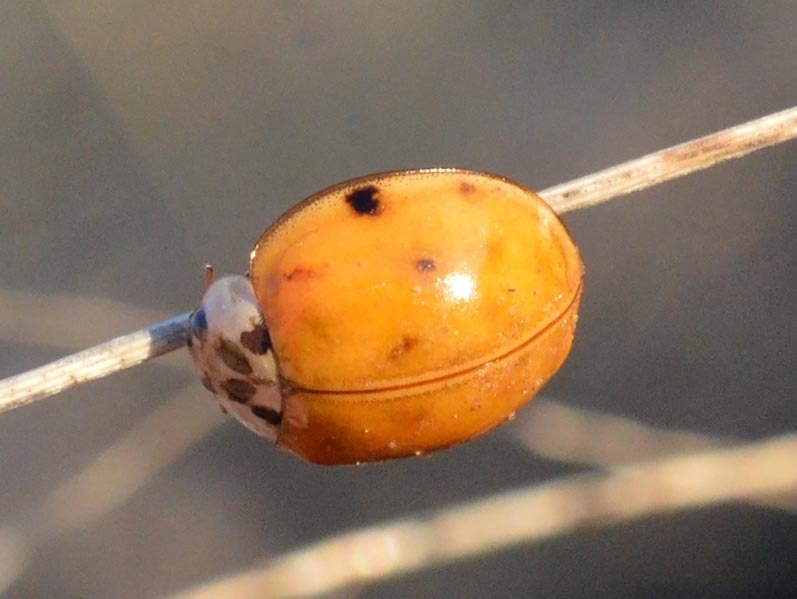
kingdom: Animalia
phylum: Arthropoda
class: Insecta
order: Coleoptera
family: Coccinellidae
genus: Harmonia
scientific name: Harmonia axyridis
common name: Harlequin ladybird
